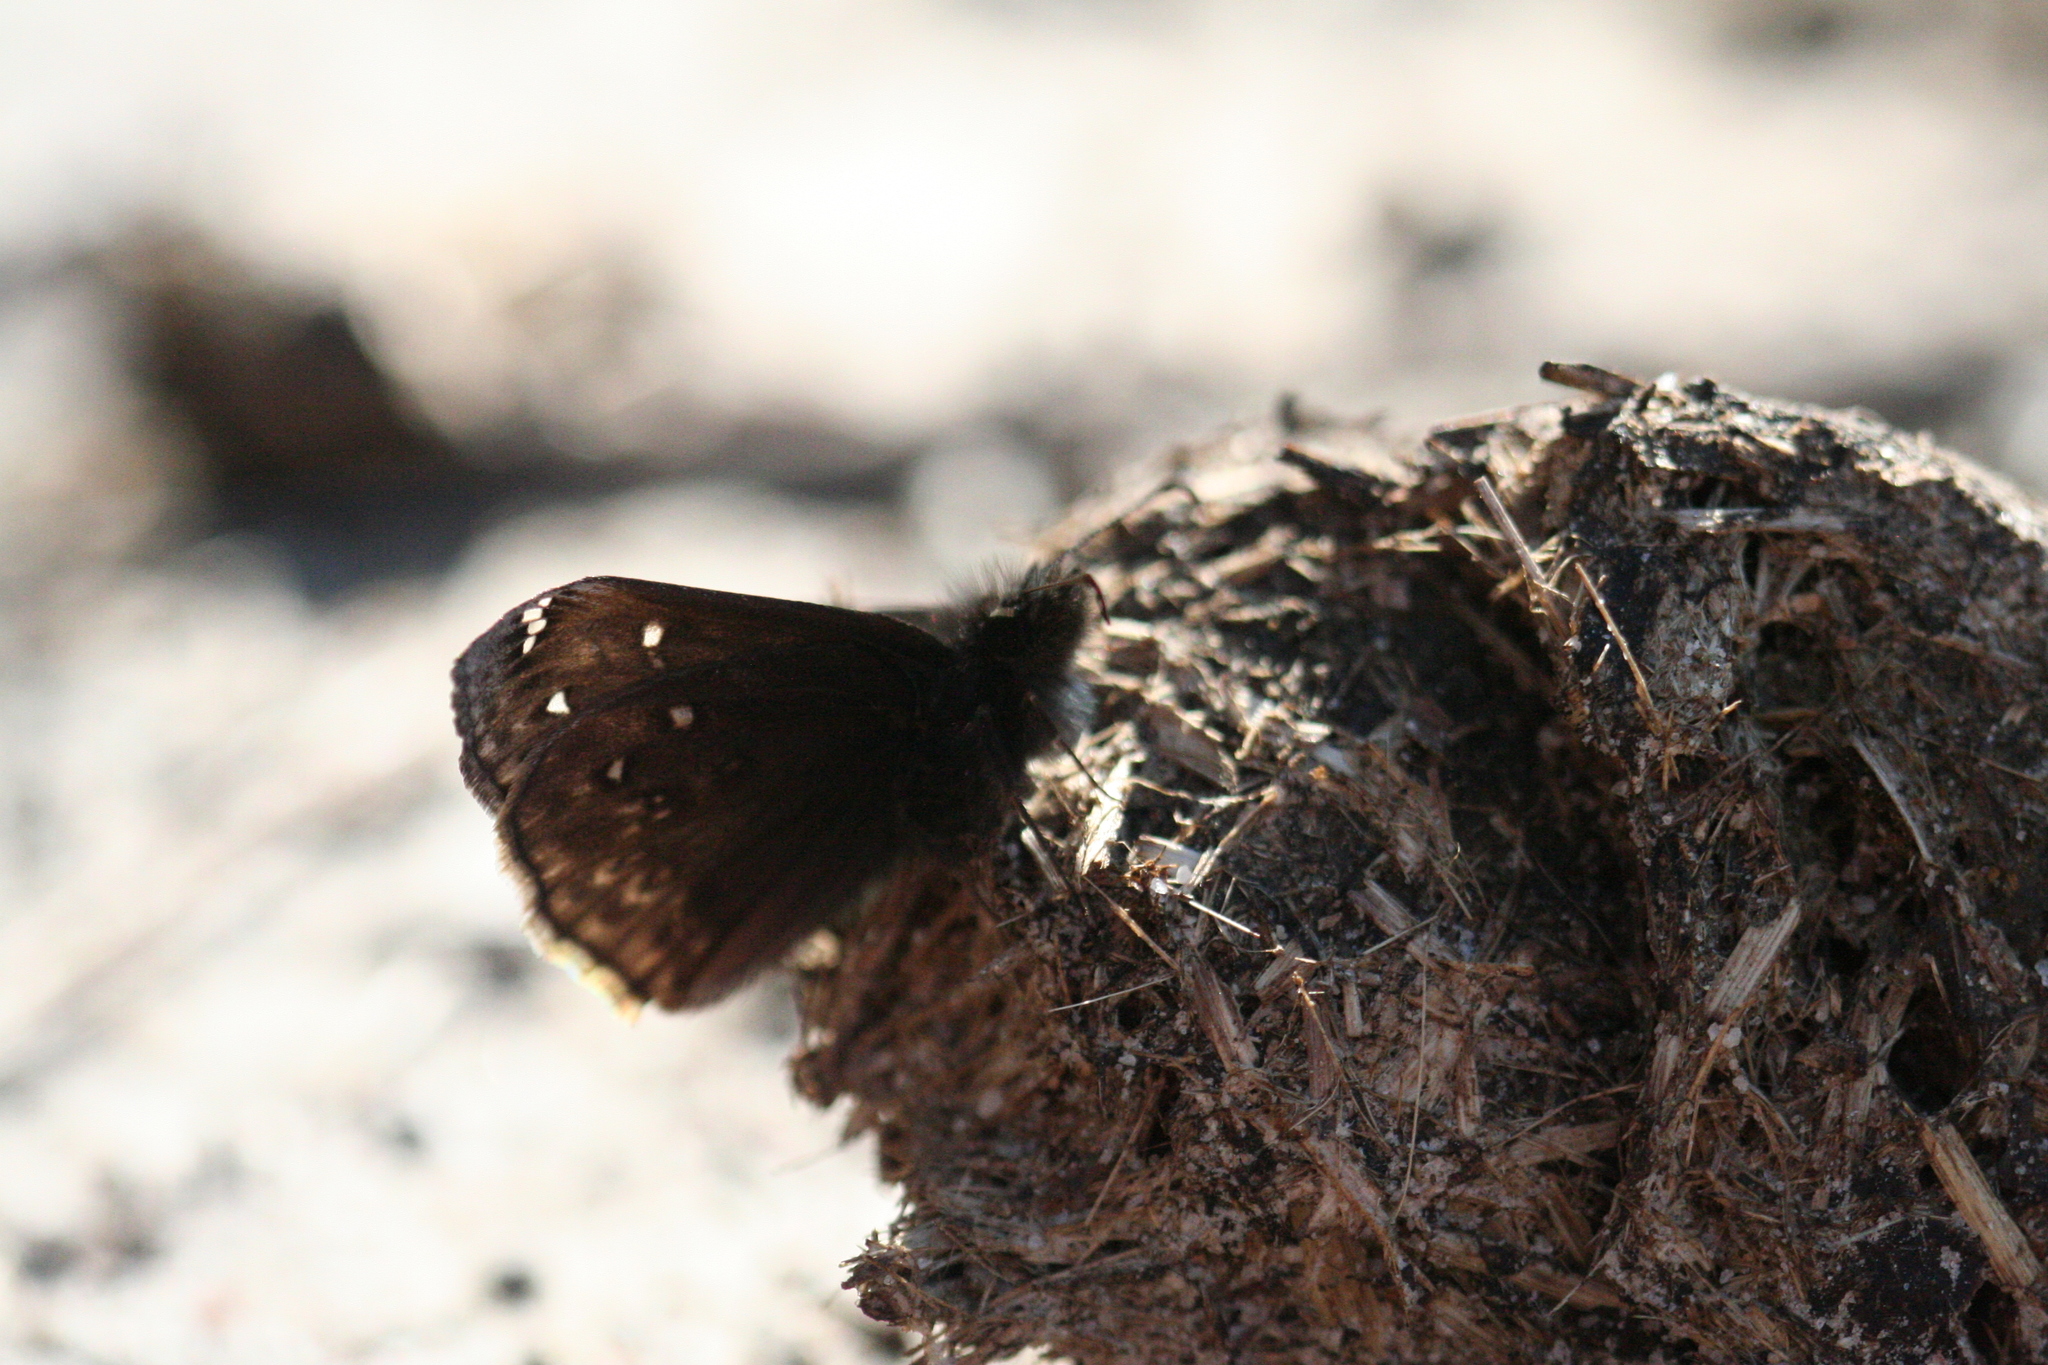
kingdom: Animalia
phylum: Arthropoda
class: Insecta
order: Lepidoptera
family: Hesperiidae
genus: Erynnis
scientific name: Erynnis juvenalis
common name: Juvenal's duskywing
